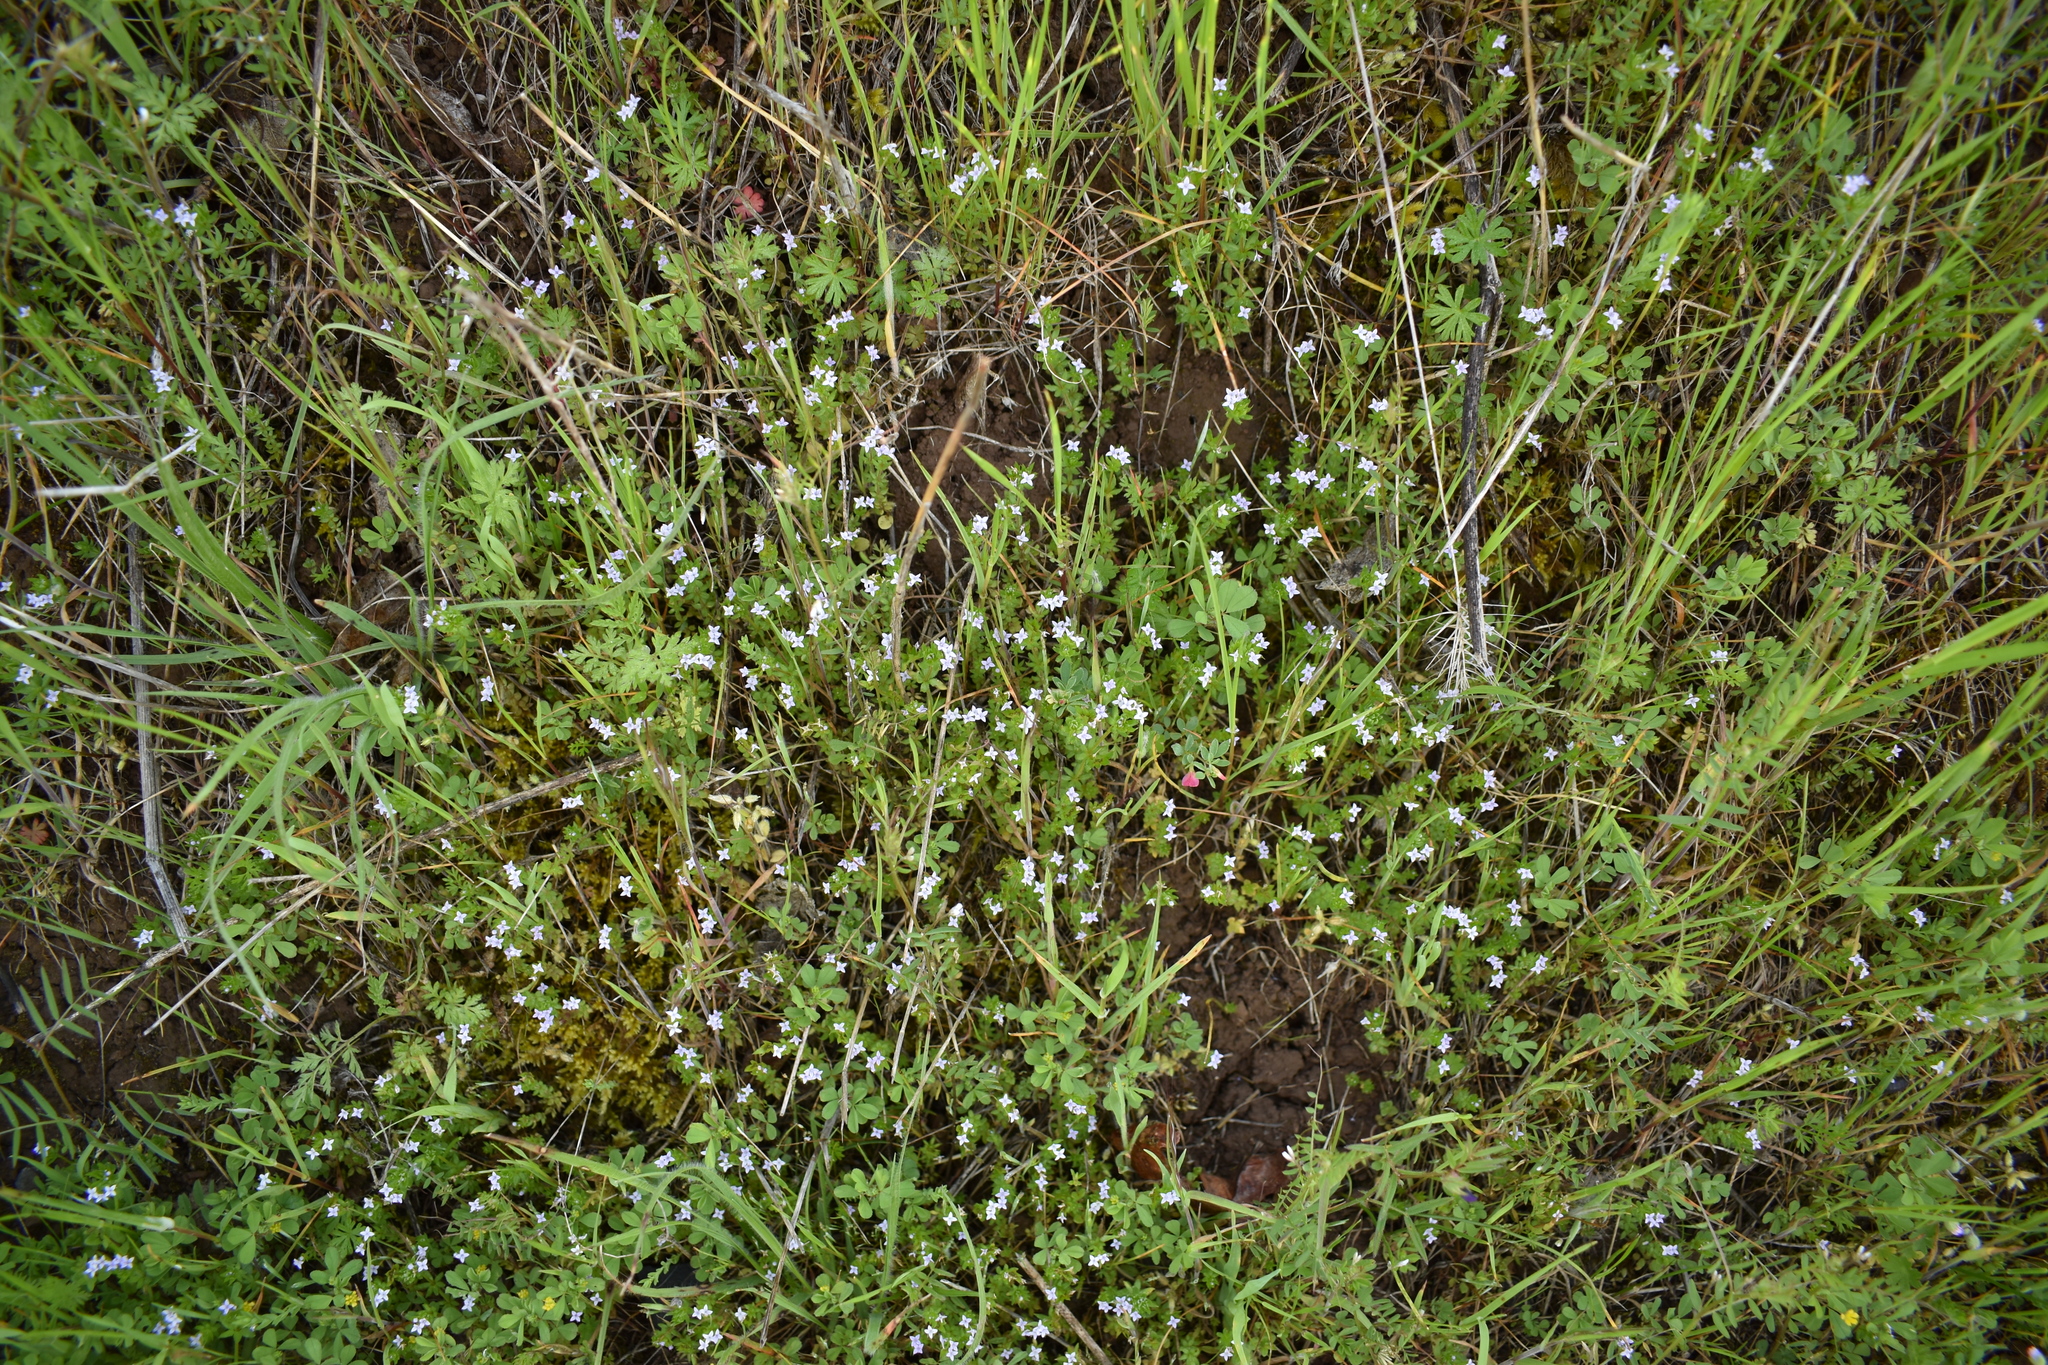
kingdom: Plantae
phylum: Tracheophyta
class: Magnoliopsida
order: Gentianales
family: Rubiaceae
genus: Sherardia
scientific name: Sherardia arvensis
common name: Field madder
